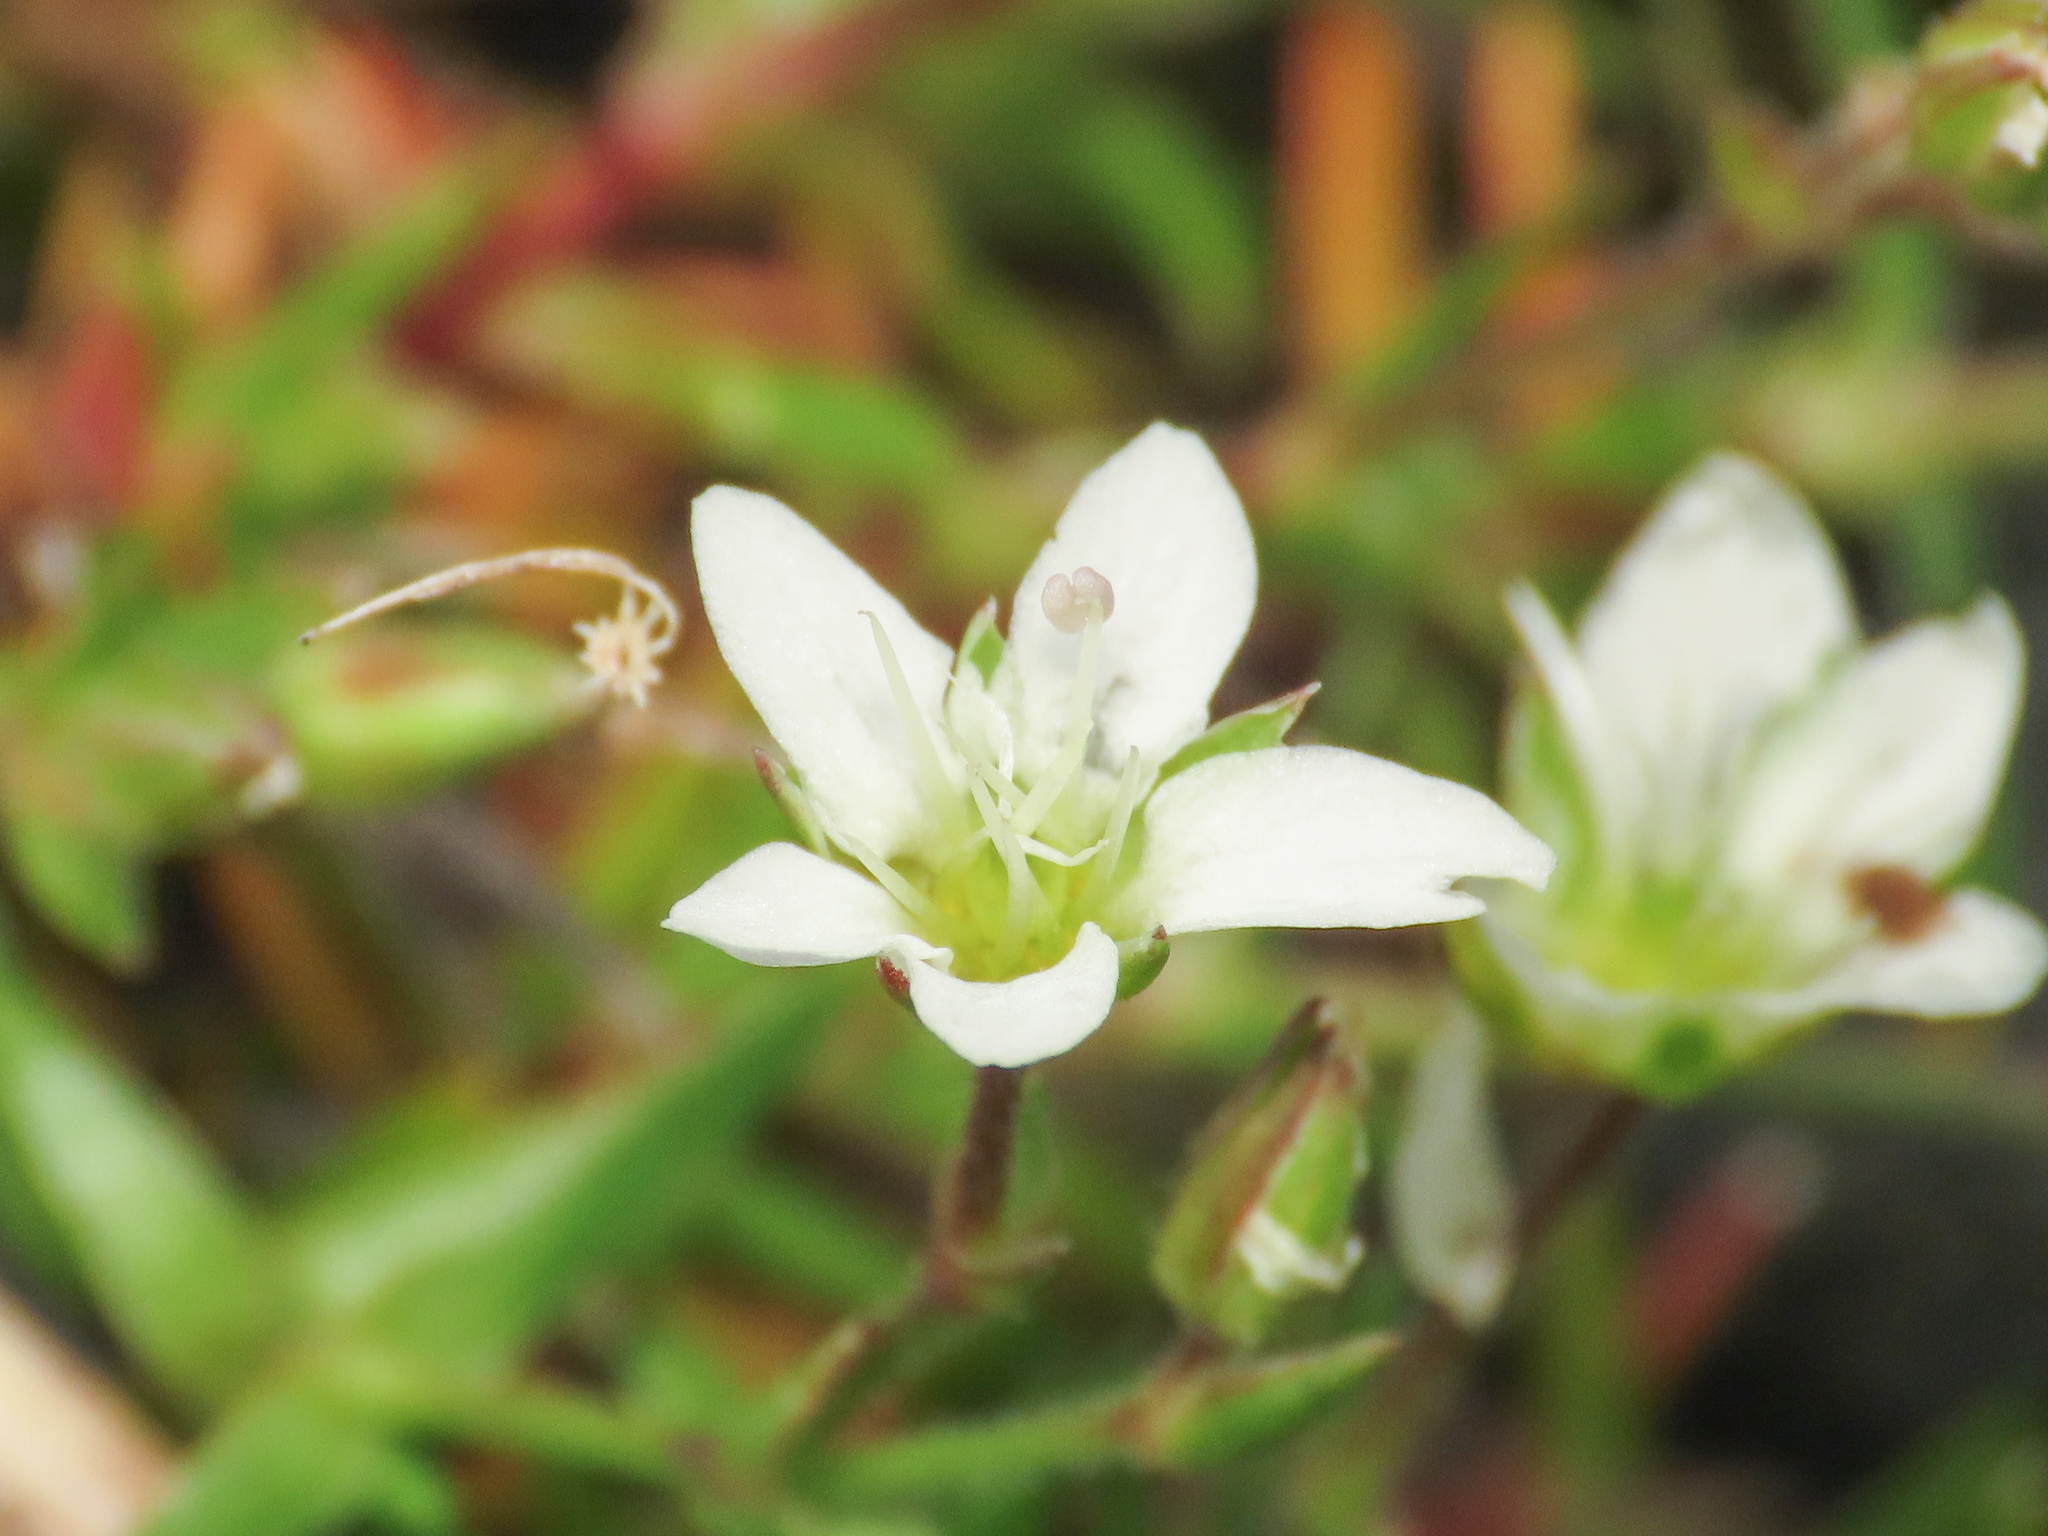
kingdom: Plantae
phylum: Tracheophyta
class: Magnoliopsida
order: Caryophyllales
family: Caryophyllaceae
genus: Sabulina
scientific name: Sabulina verna
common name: Spring sandwort
